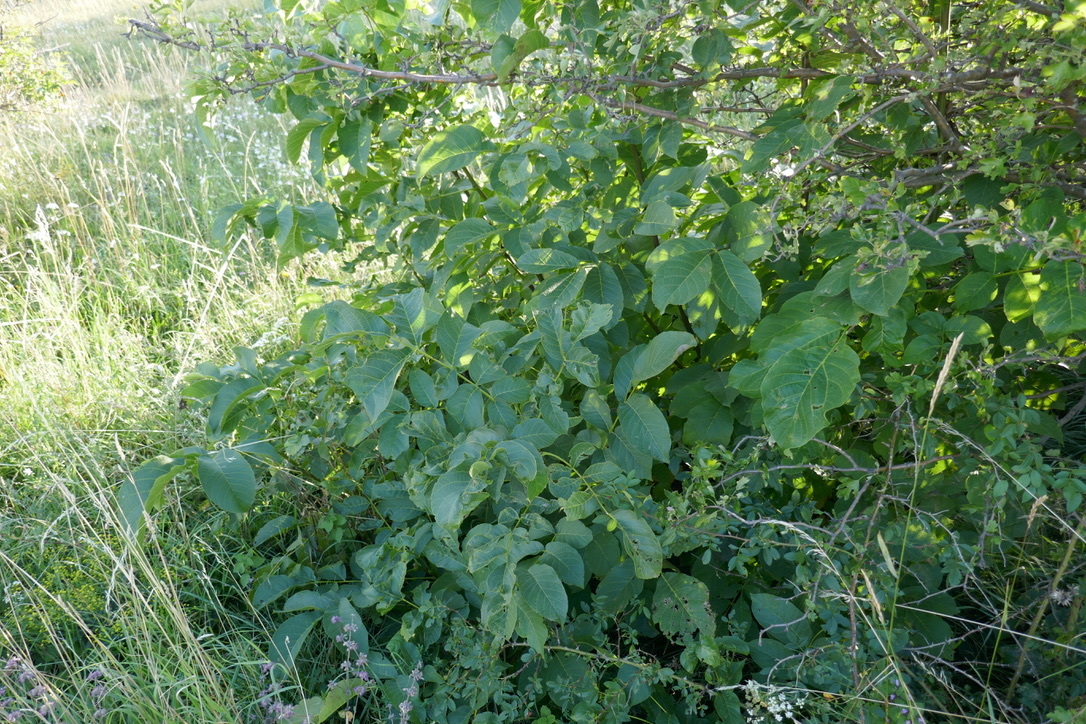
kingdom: Plantae
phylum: Tracheophyta
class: Magnoliopsida
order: Fagales
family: Juglandaceae
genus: Juglans
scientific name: Juglans regia
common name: Walnut
